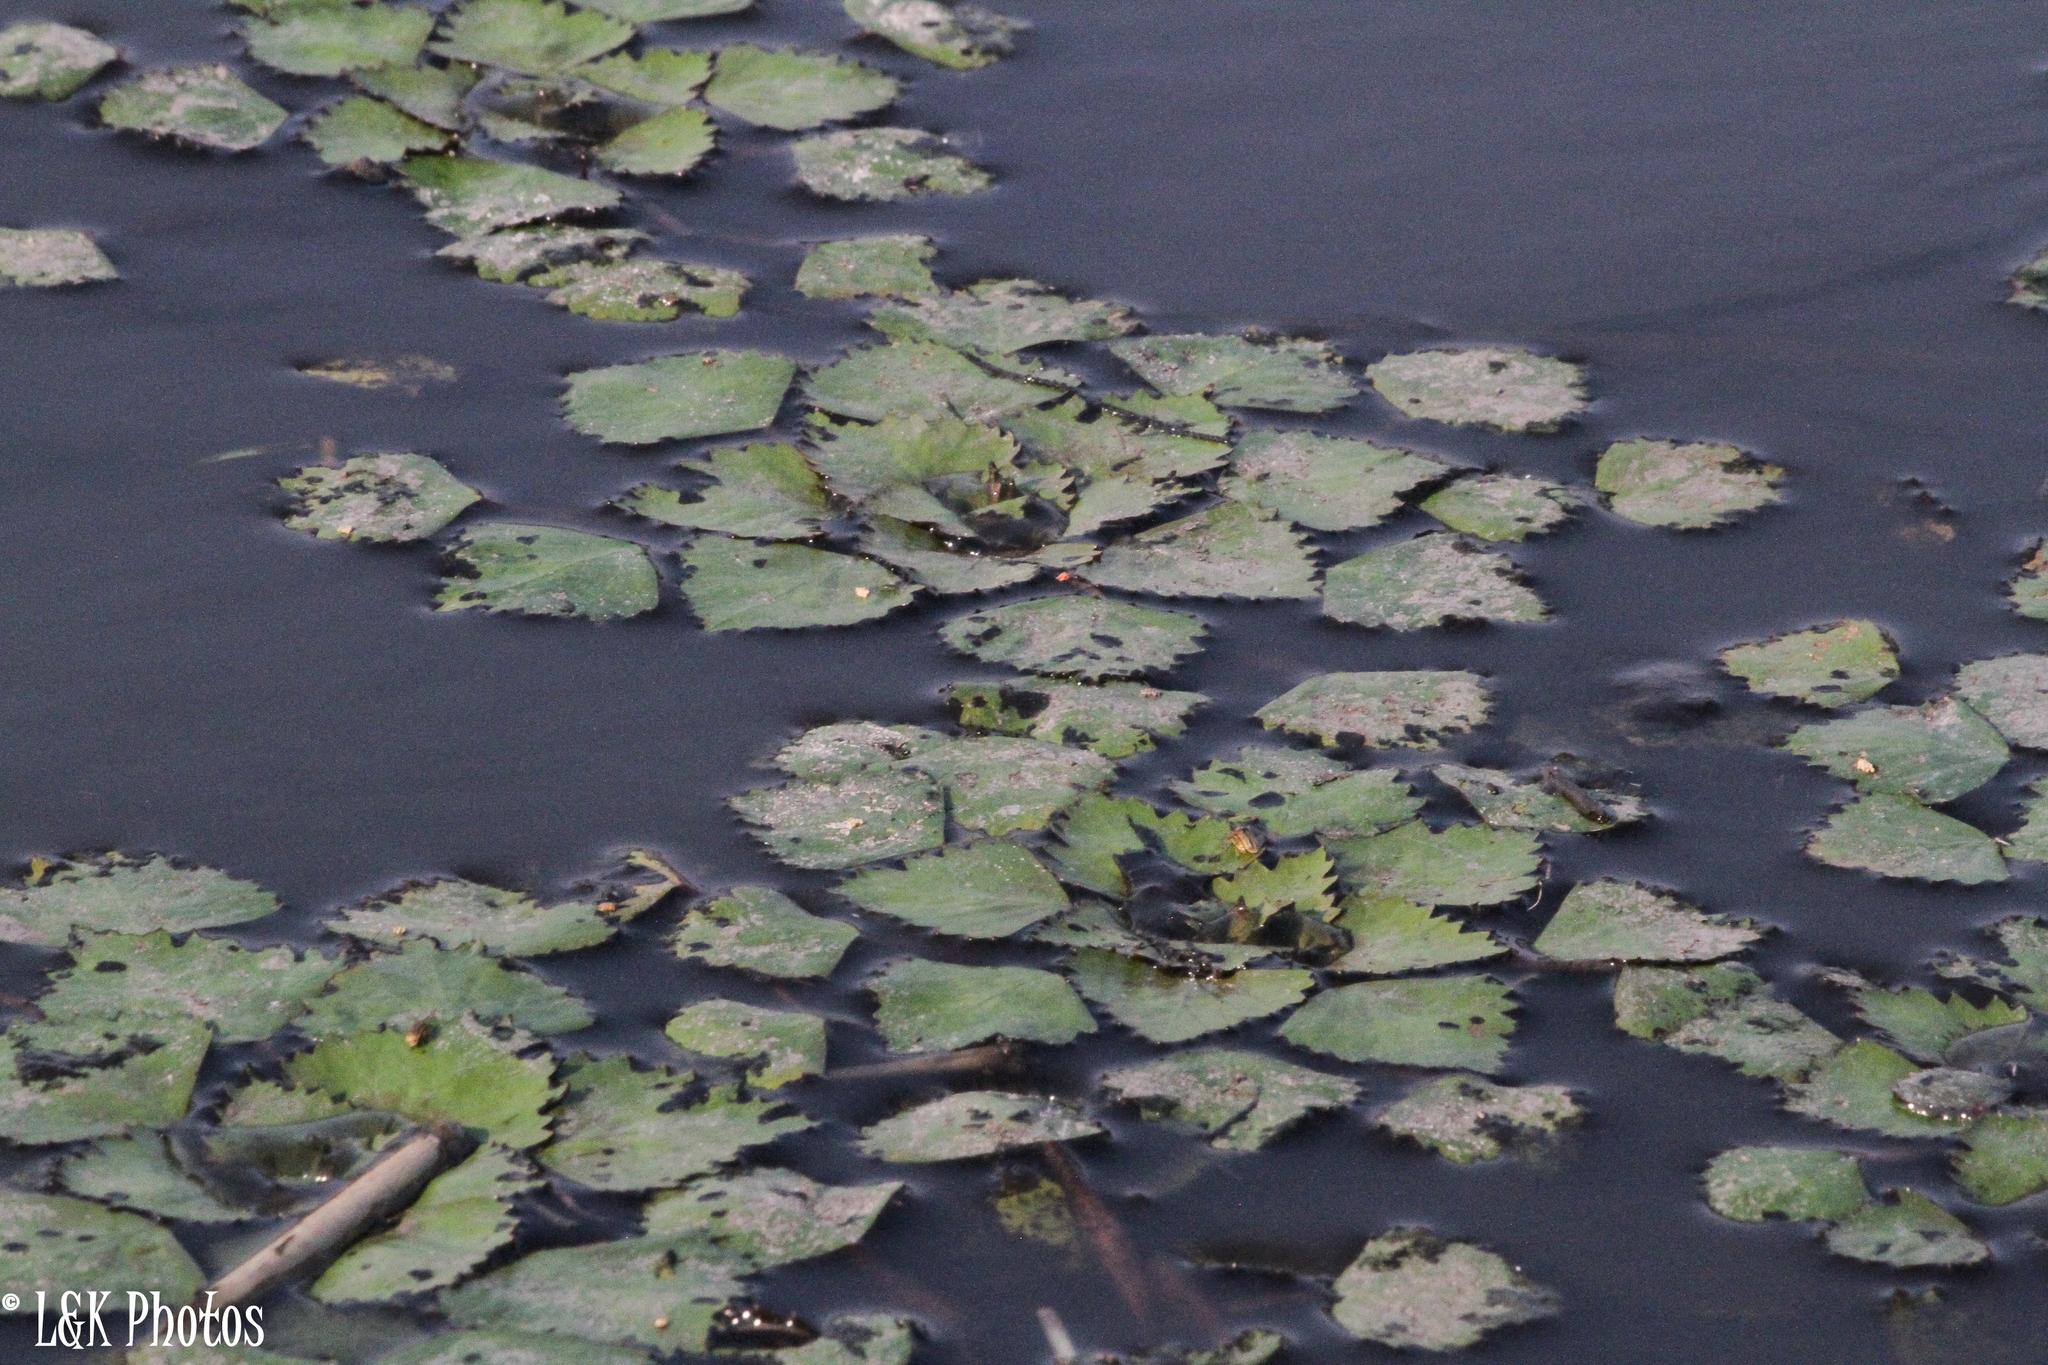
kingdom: Plantae
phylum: Tracheophyta
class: Magnoliopsida
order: Myrtales
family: Lythraceae
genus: Trapa
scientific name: Trapa natans
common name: Water chestnut
